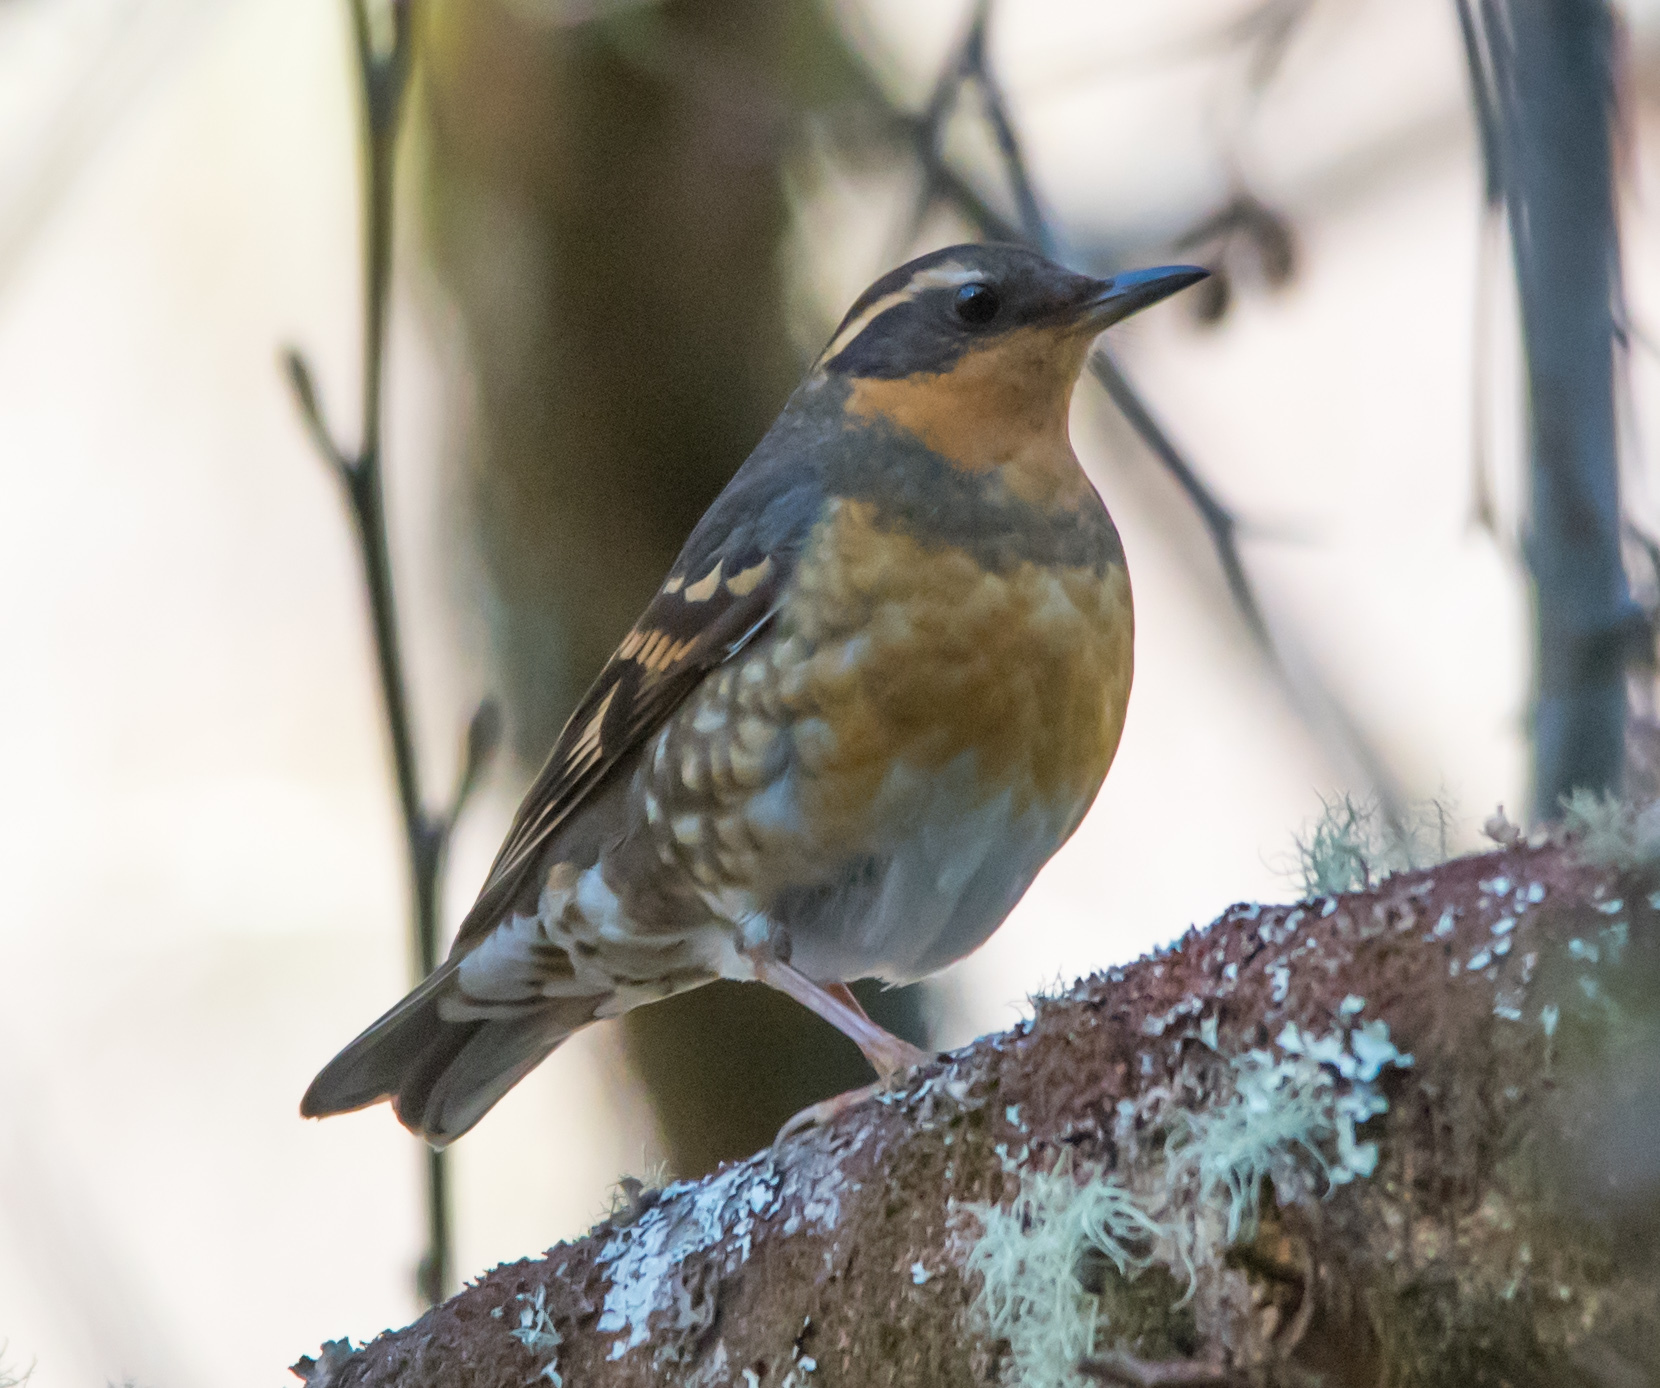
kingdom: Animalia
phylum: Chordata
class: Aves
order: Passeriformes
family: Turdidae
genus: Ixoreus
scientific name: Ixoreus naevius
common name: Varied thrush
